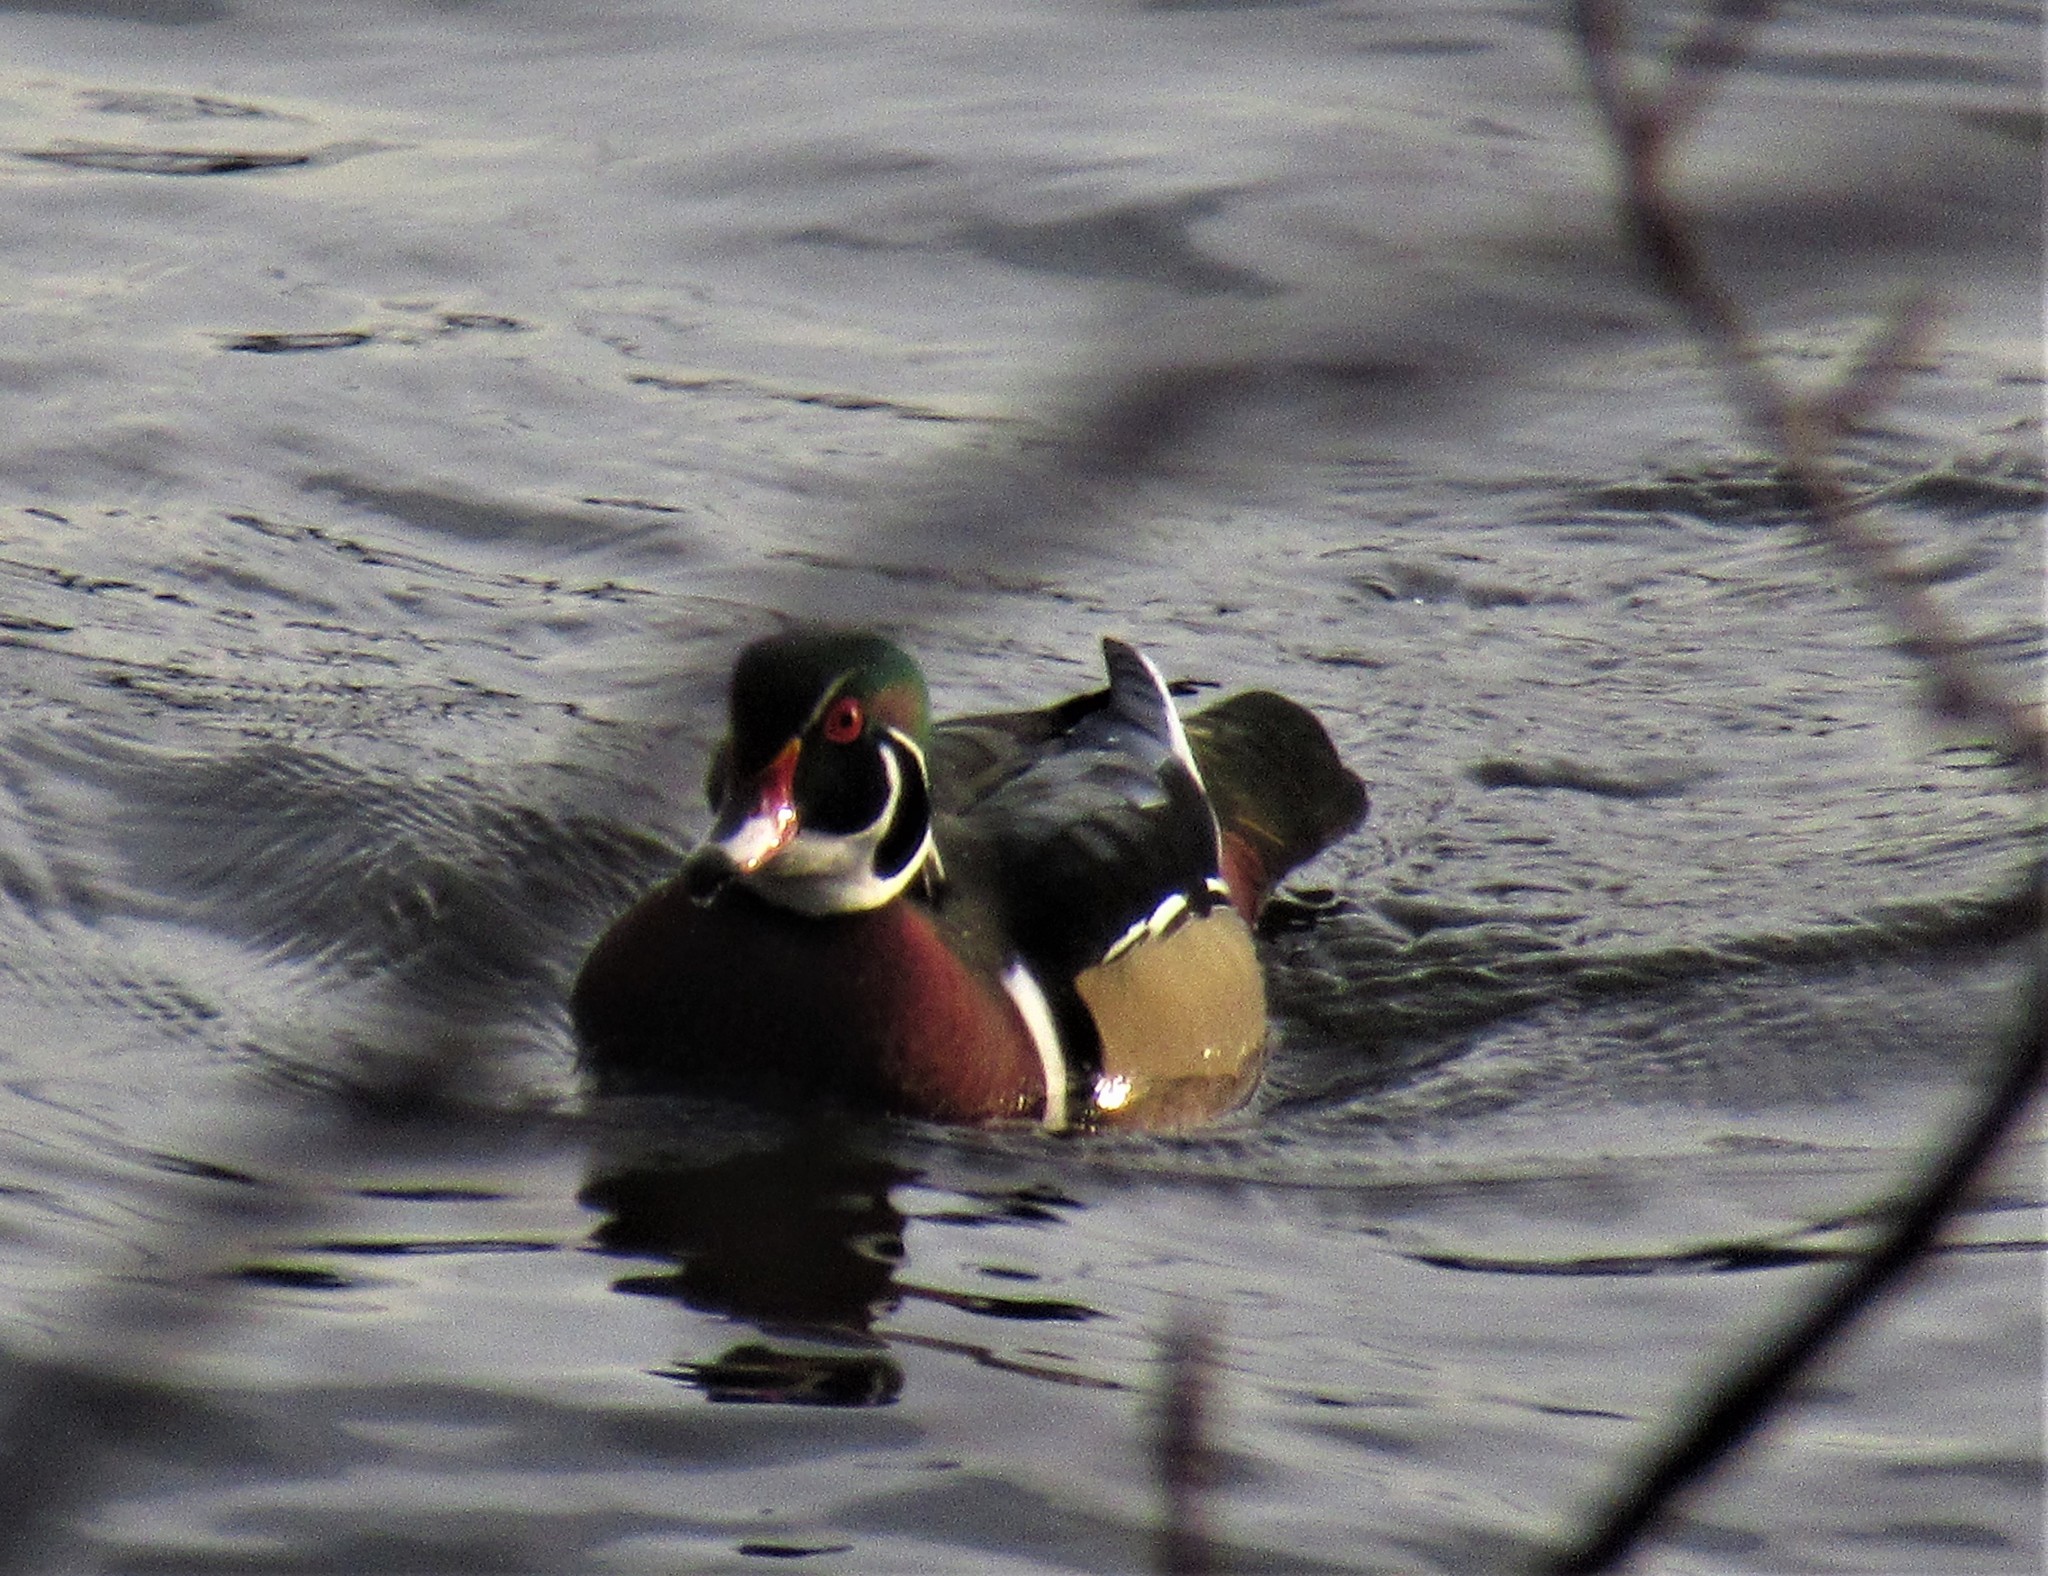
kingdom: Animalia
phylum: Chordata
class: Aves
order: Anseriformes
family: Anatidae
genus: Aix
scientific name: Aix sponsa
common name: Wood duck
